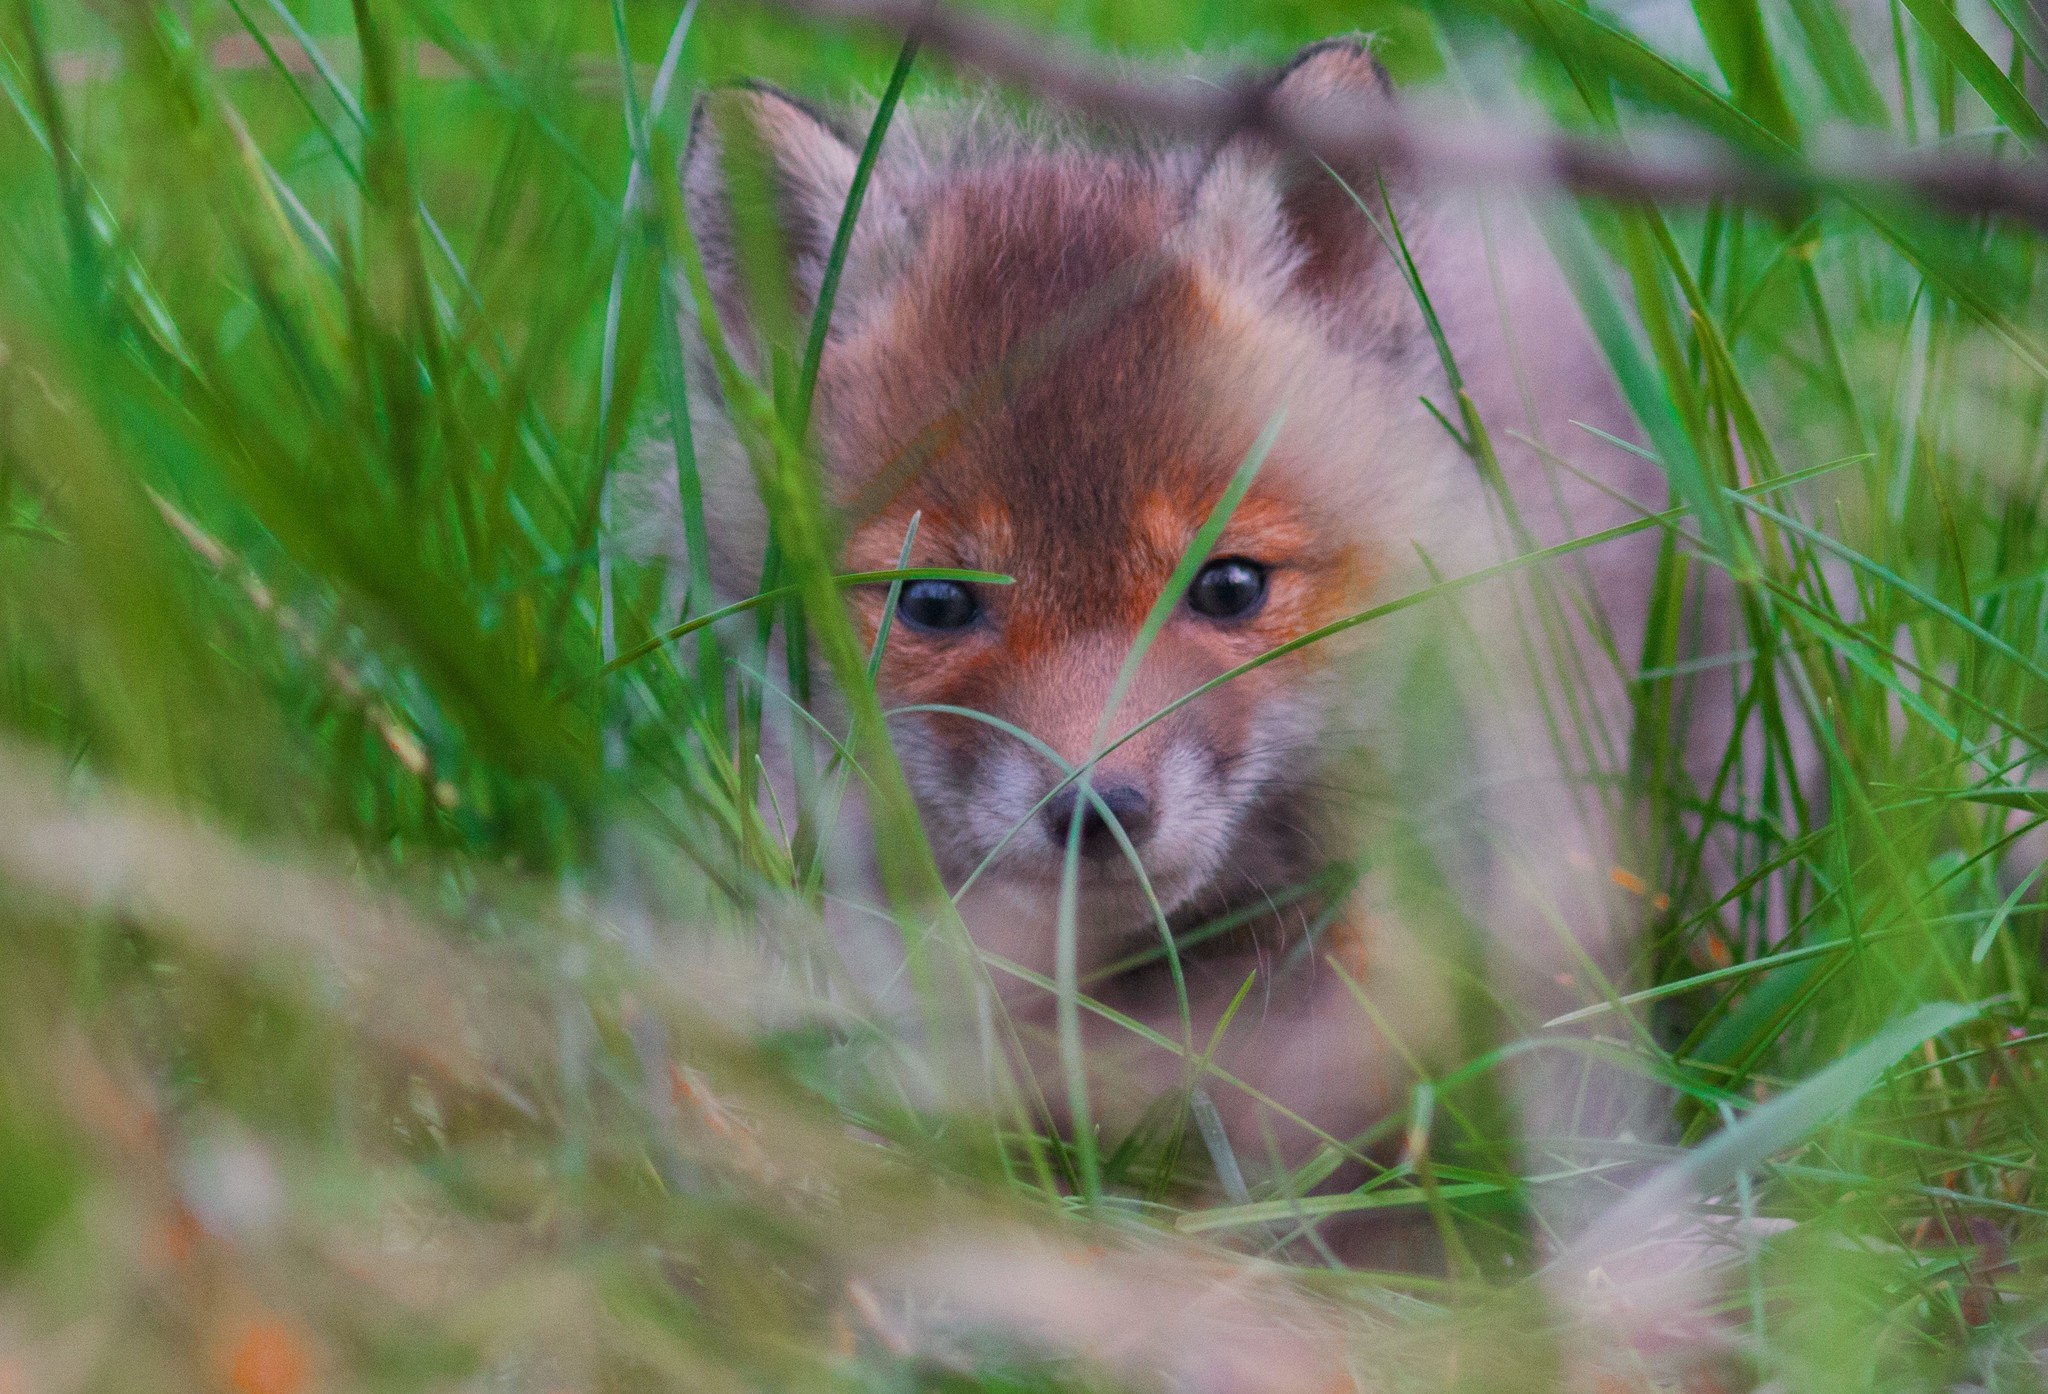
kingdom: Animalia
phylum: Chordata
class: Mammalia
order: Carnivora
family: Canidae
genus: Vulpes
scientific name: Vulpes vulpes
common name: Red fox
